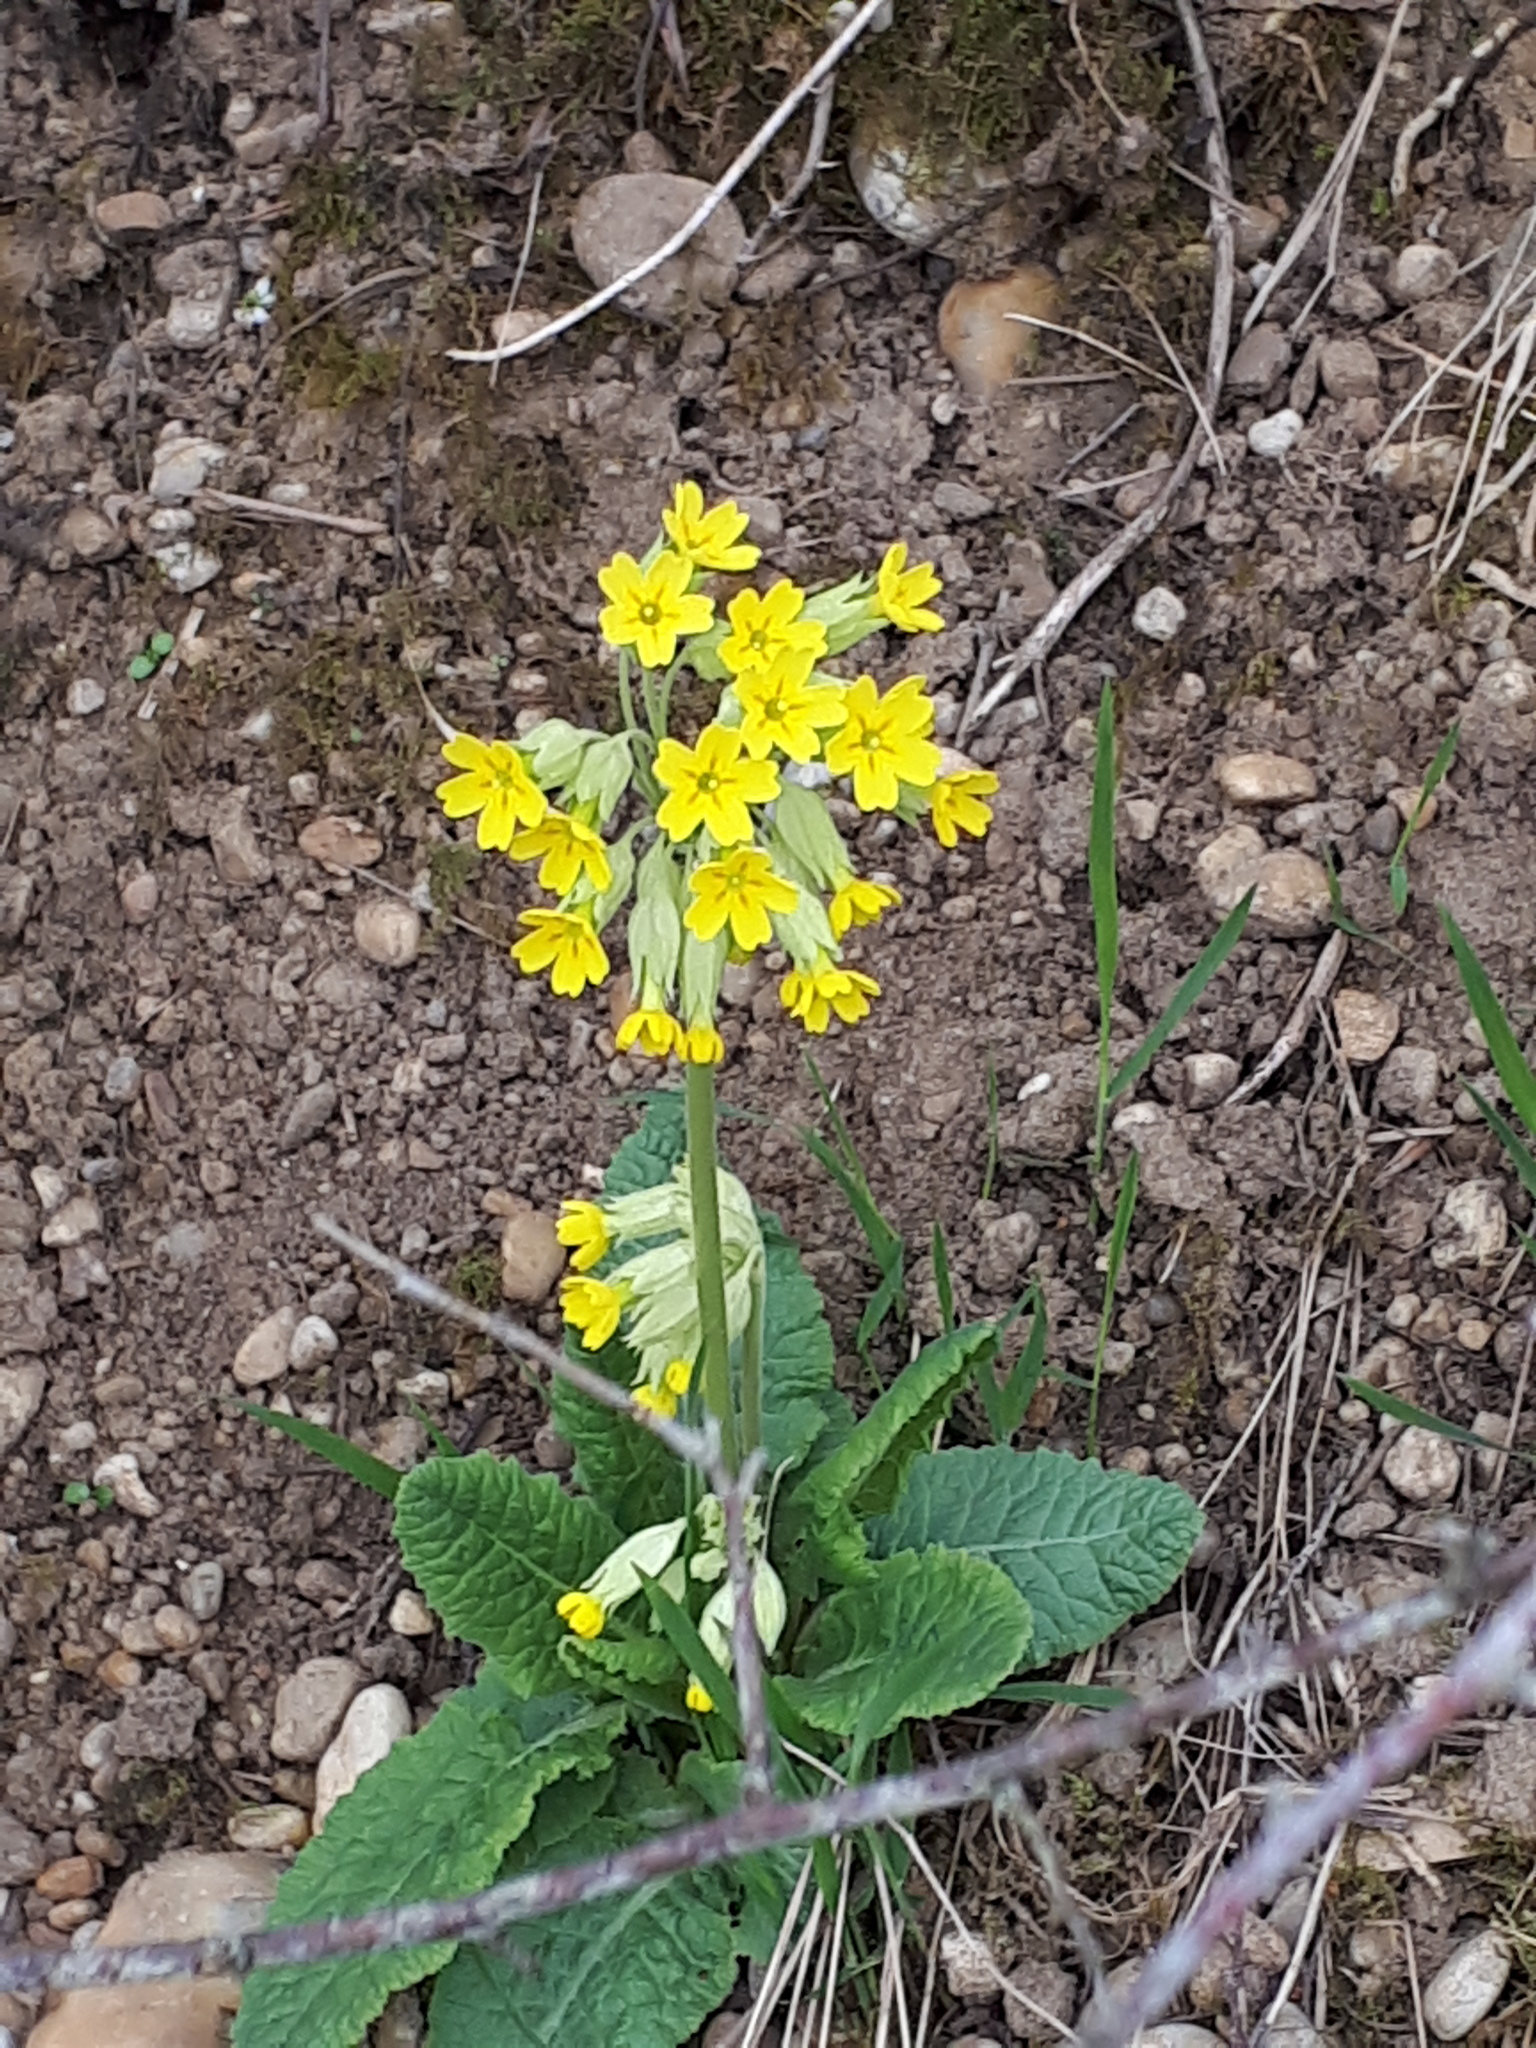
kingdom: Plantae
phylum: Tracheophyta
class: Magnoliopsida
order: Ericales
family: Primulaceae
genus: Primula
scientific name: Primula veris
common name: Cowslip
